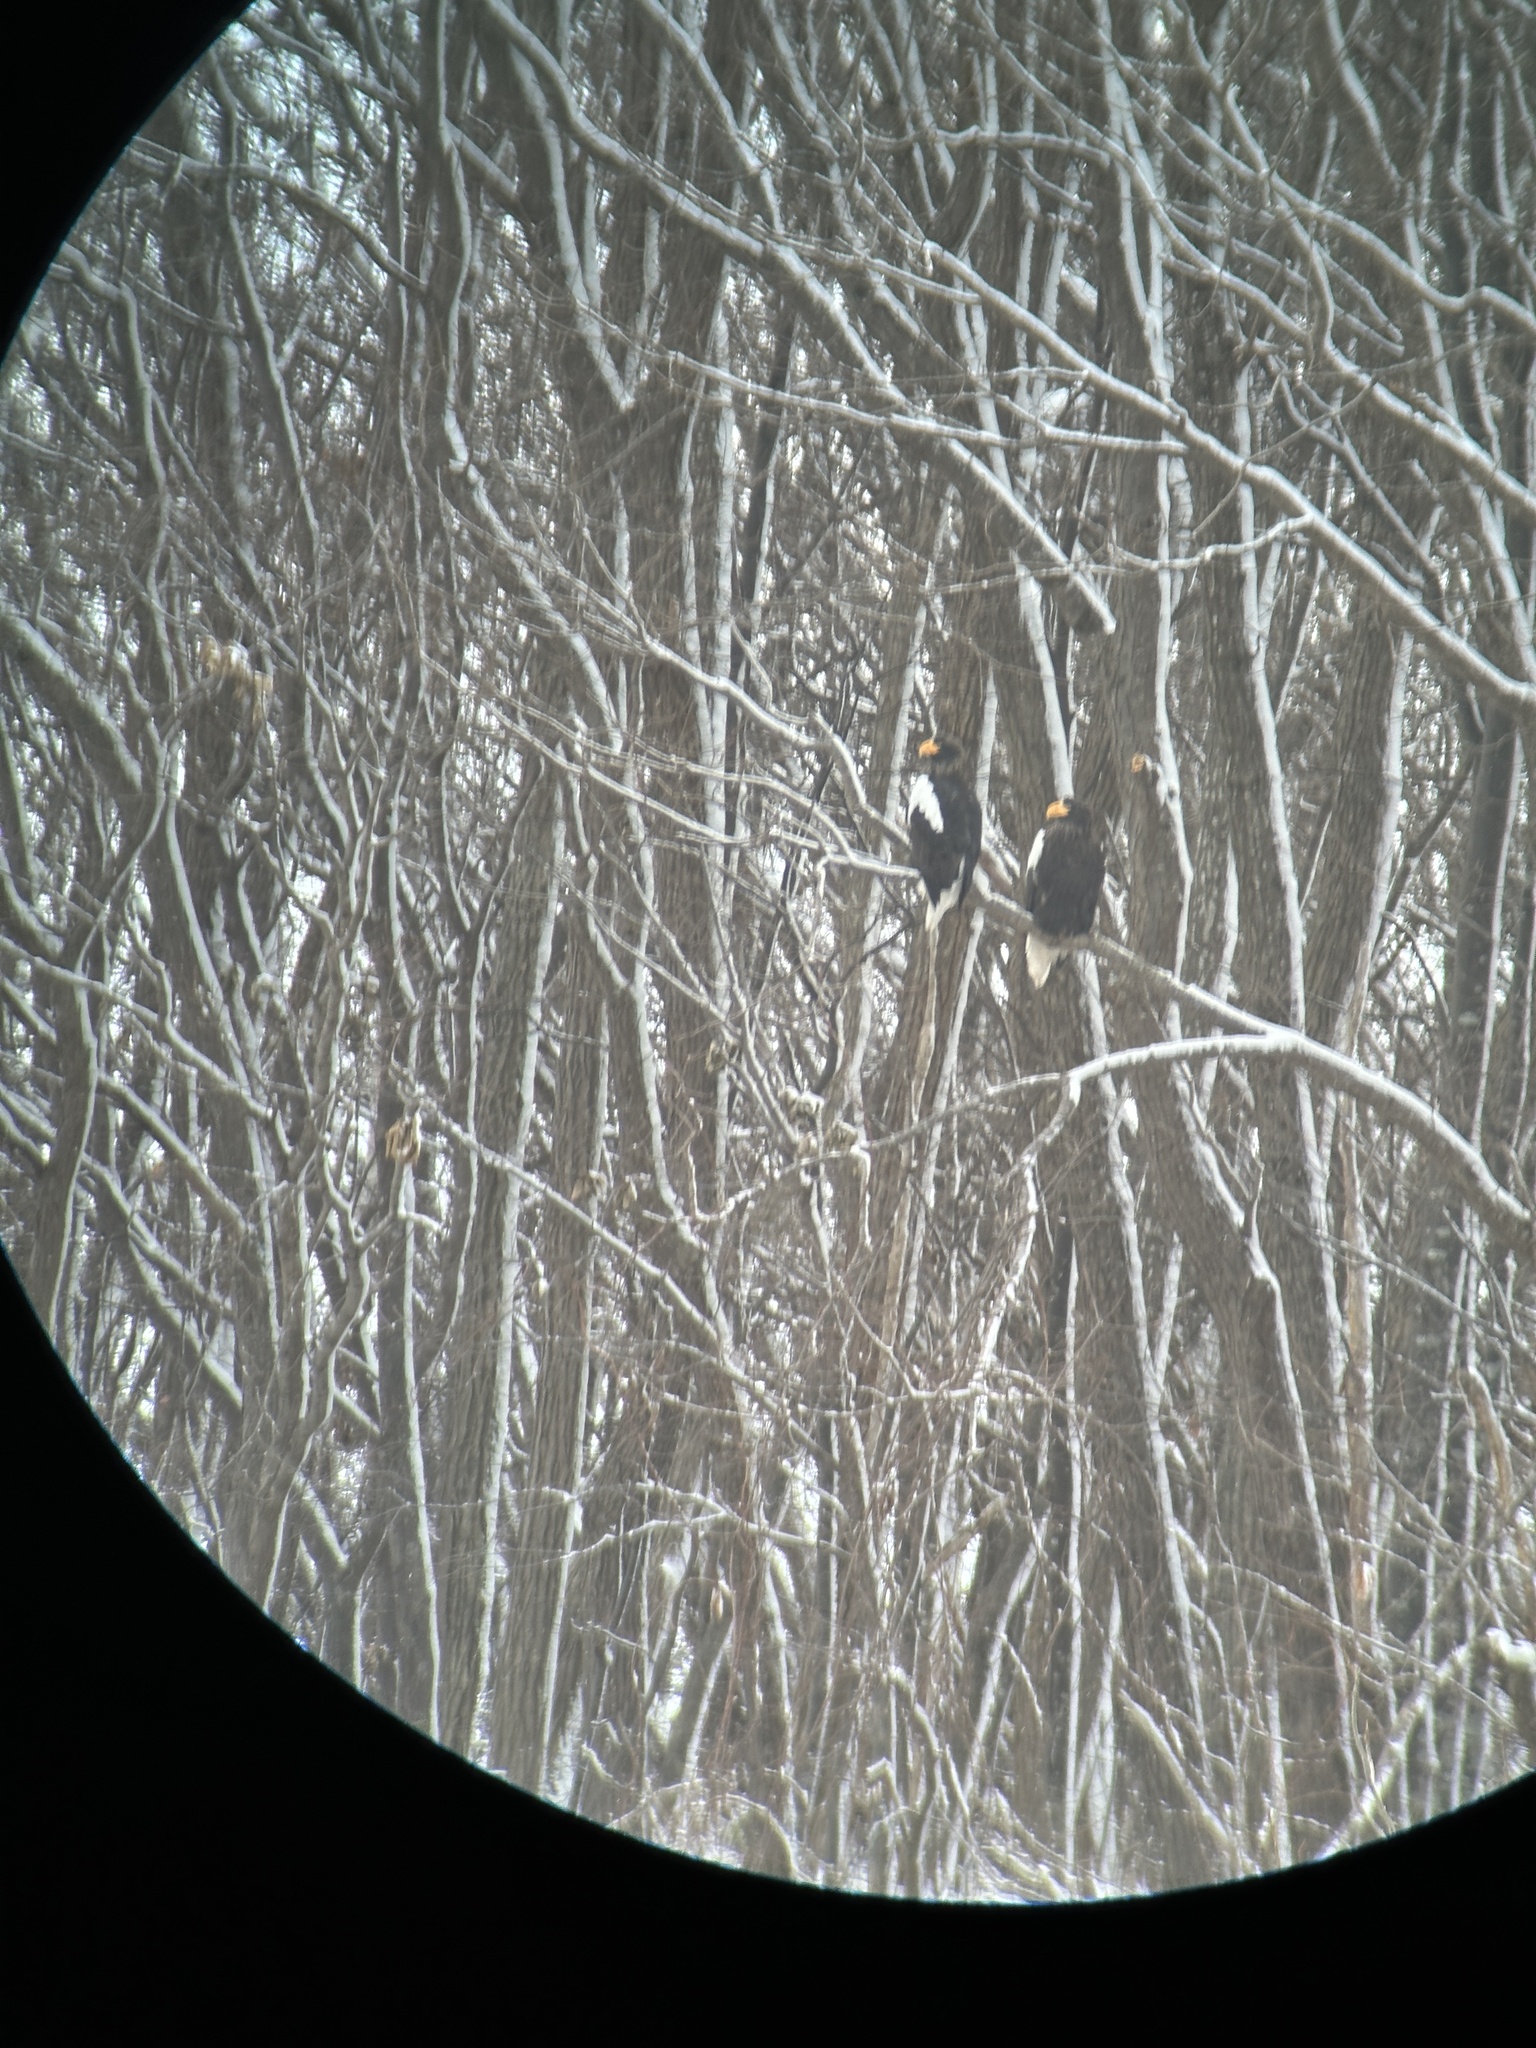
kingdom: Animalia
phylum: Chordata
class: Aves
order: Accipitriformes
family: Accipitridae
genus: Haliaeetus
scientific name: Haliaeetus pelagicus
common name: Steller's sea eagle
